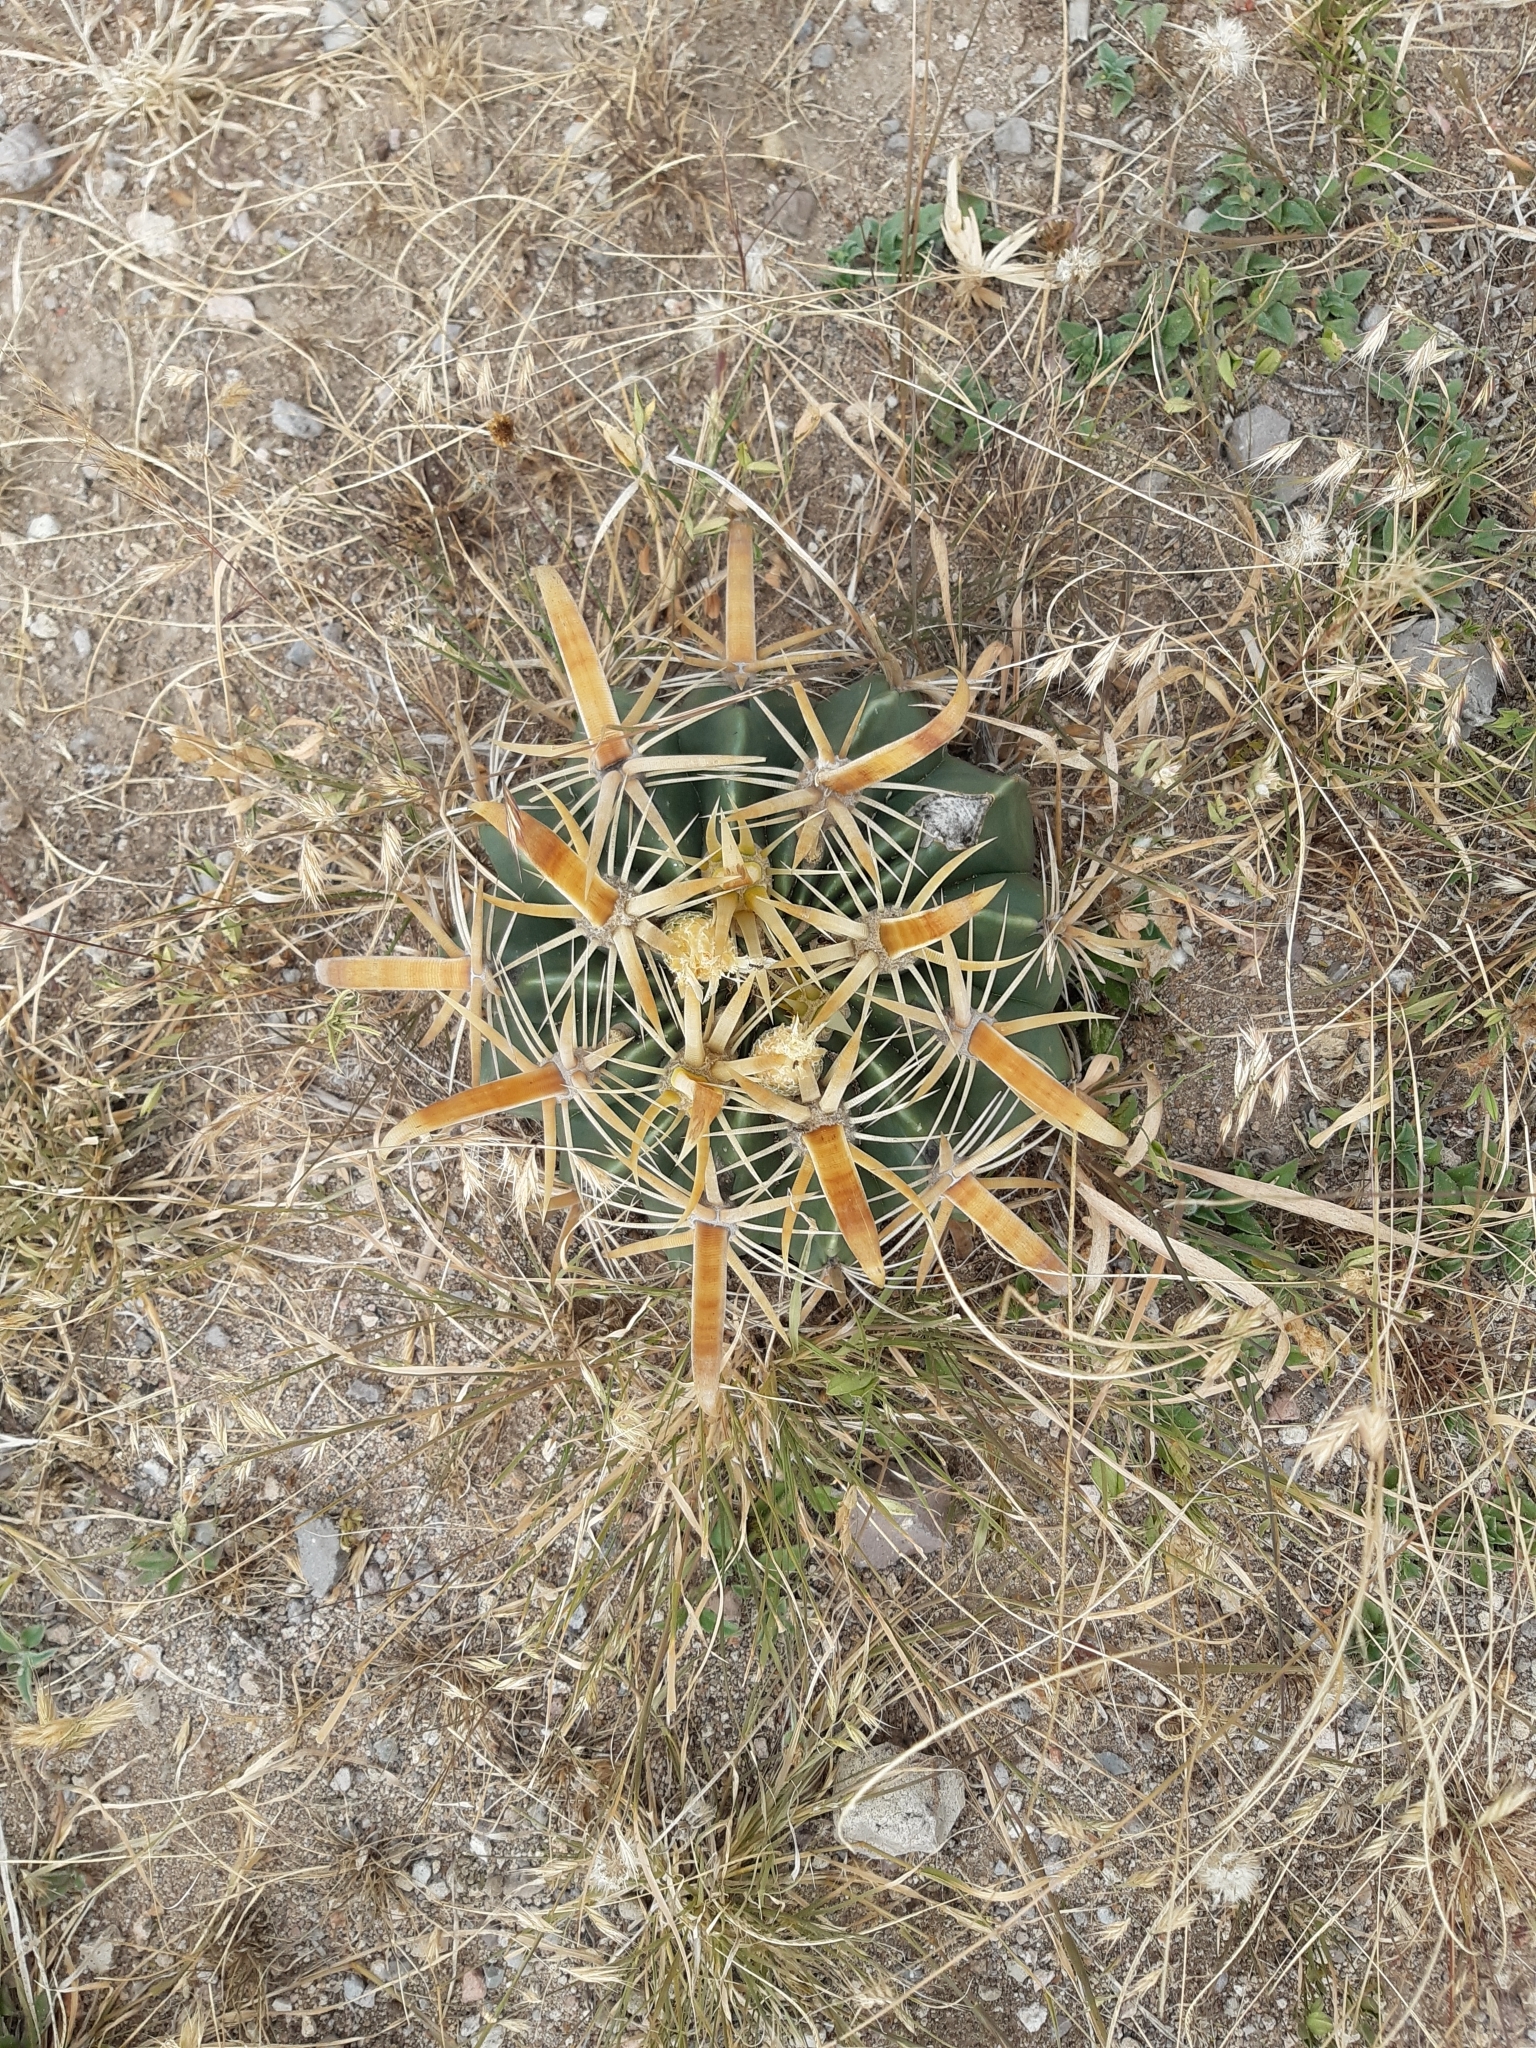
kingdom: Plantae
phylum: Tracheophyta
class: Magnoliopsida
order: Caryophyllales
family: Cactaceae
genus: Ferocactus
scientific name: Ferocactus latispinus
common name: Devil's-tongue cactus
